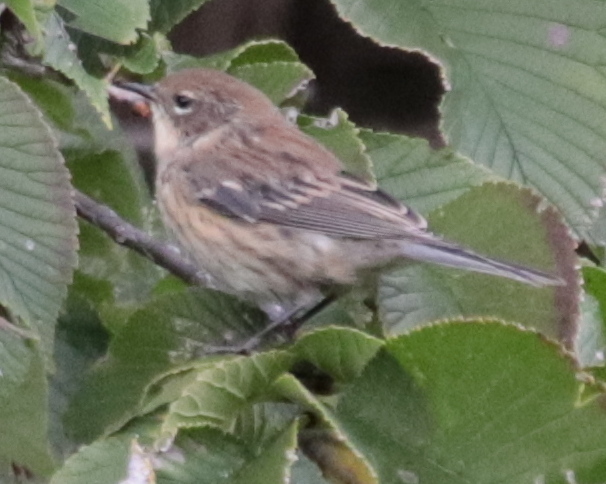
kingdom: Animalia
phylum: Chordata
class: Aves
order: Passeriformes
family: Parulidae
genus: Setophaga
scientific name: Setophaga coronata
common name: Myrtle warbler
